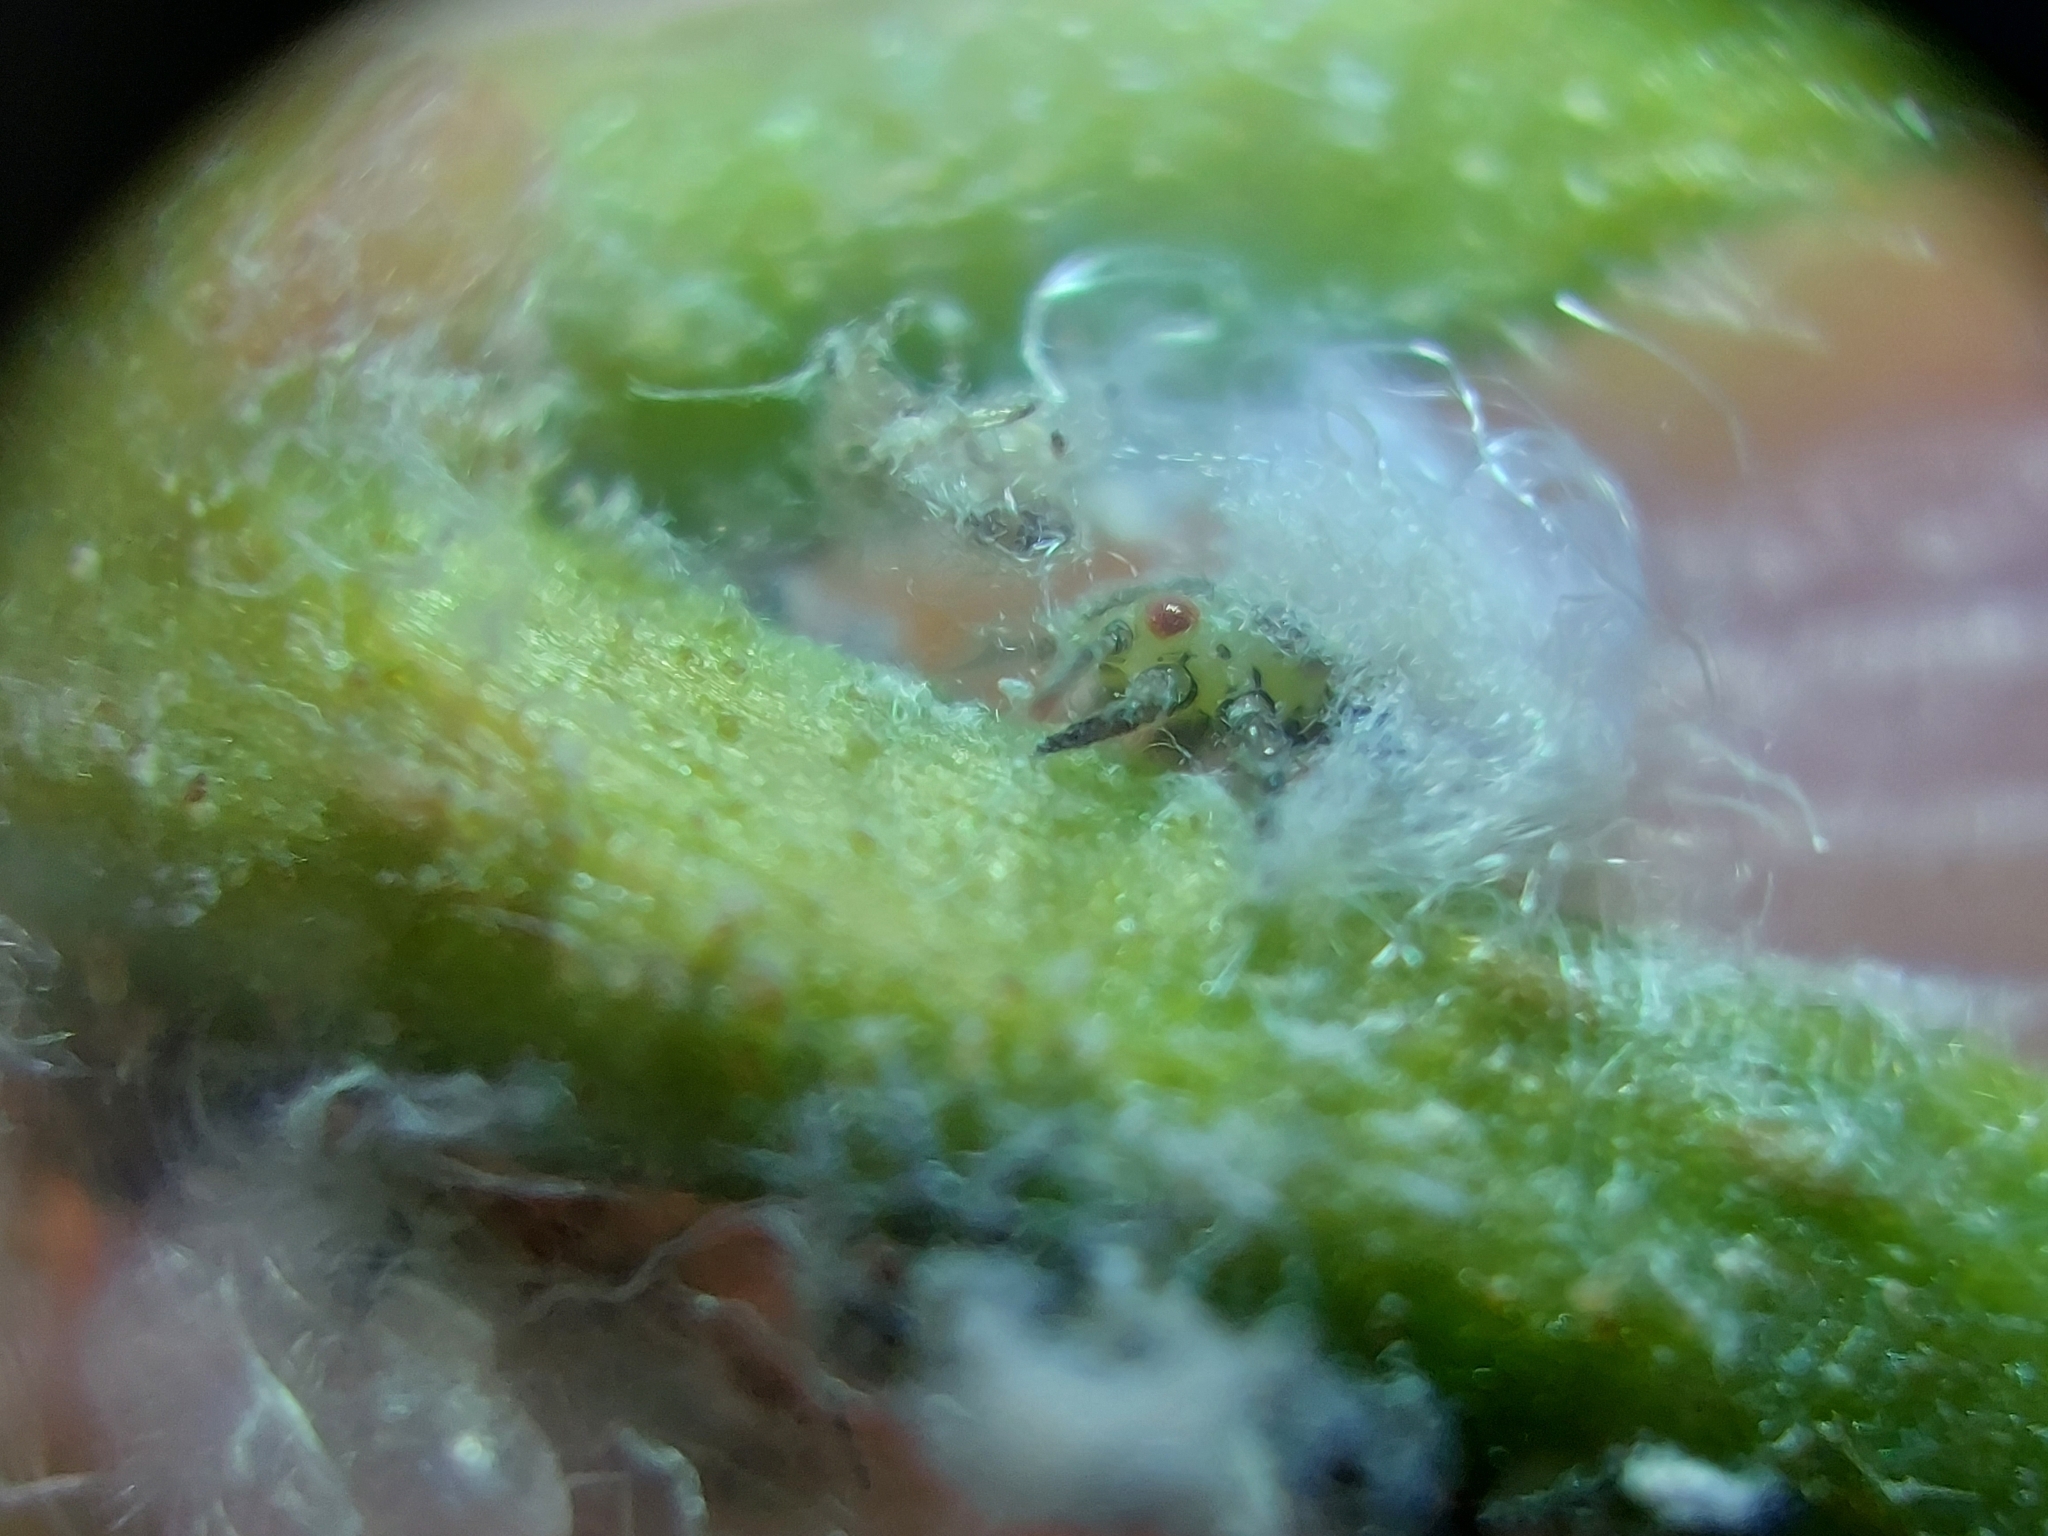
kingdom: Animalia
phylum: Arthropoda
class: Insecta
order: Hemiptera
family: Psyllidae
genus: Psylla
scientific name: Psylla alni
